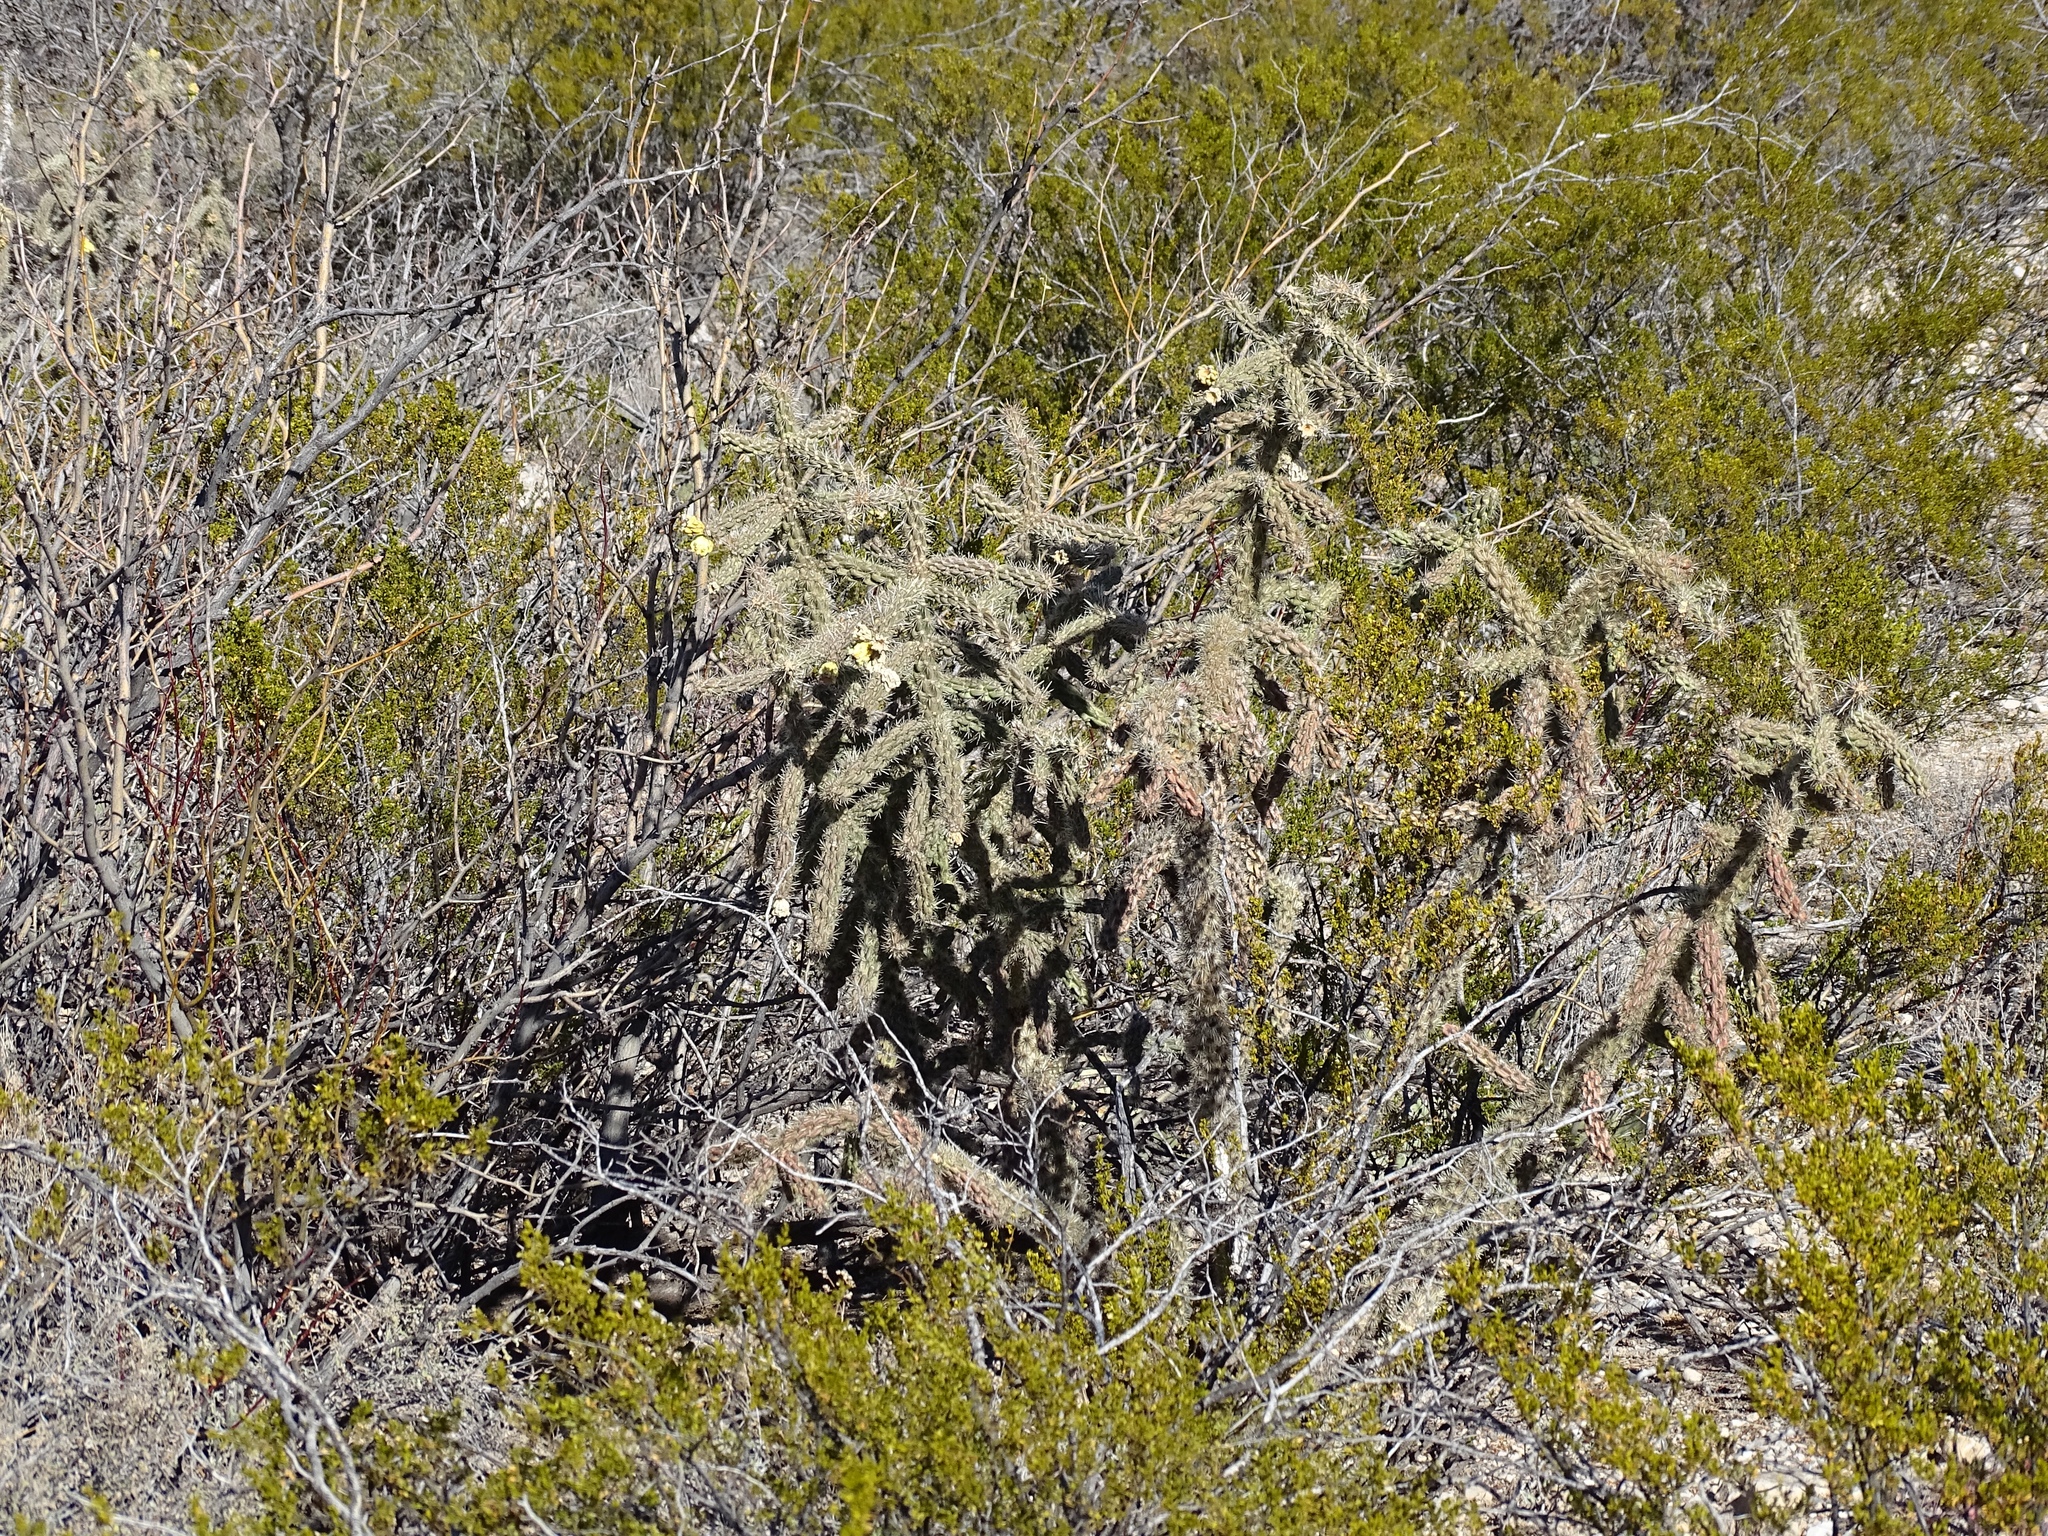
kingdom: Plantae
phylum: Tracheophyta
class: Magnoliopsida
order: Caryophyllales
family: Cactaceae
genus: Cylindropuntia
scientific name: Cylindropuntia imbricata
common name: Candelabrum cactus
